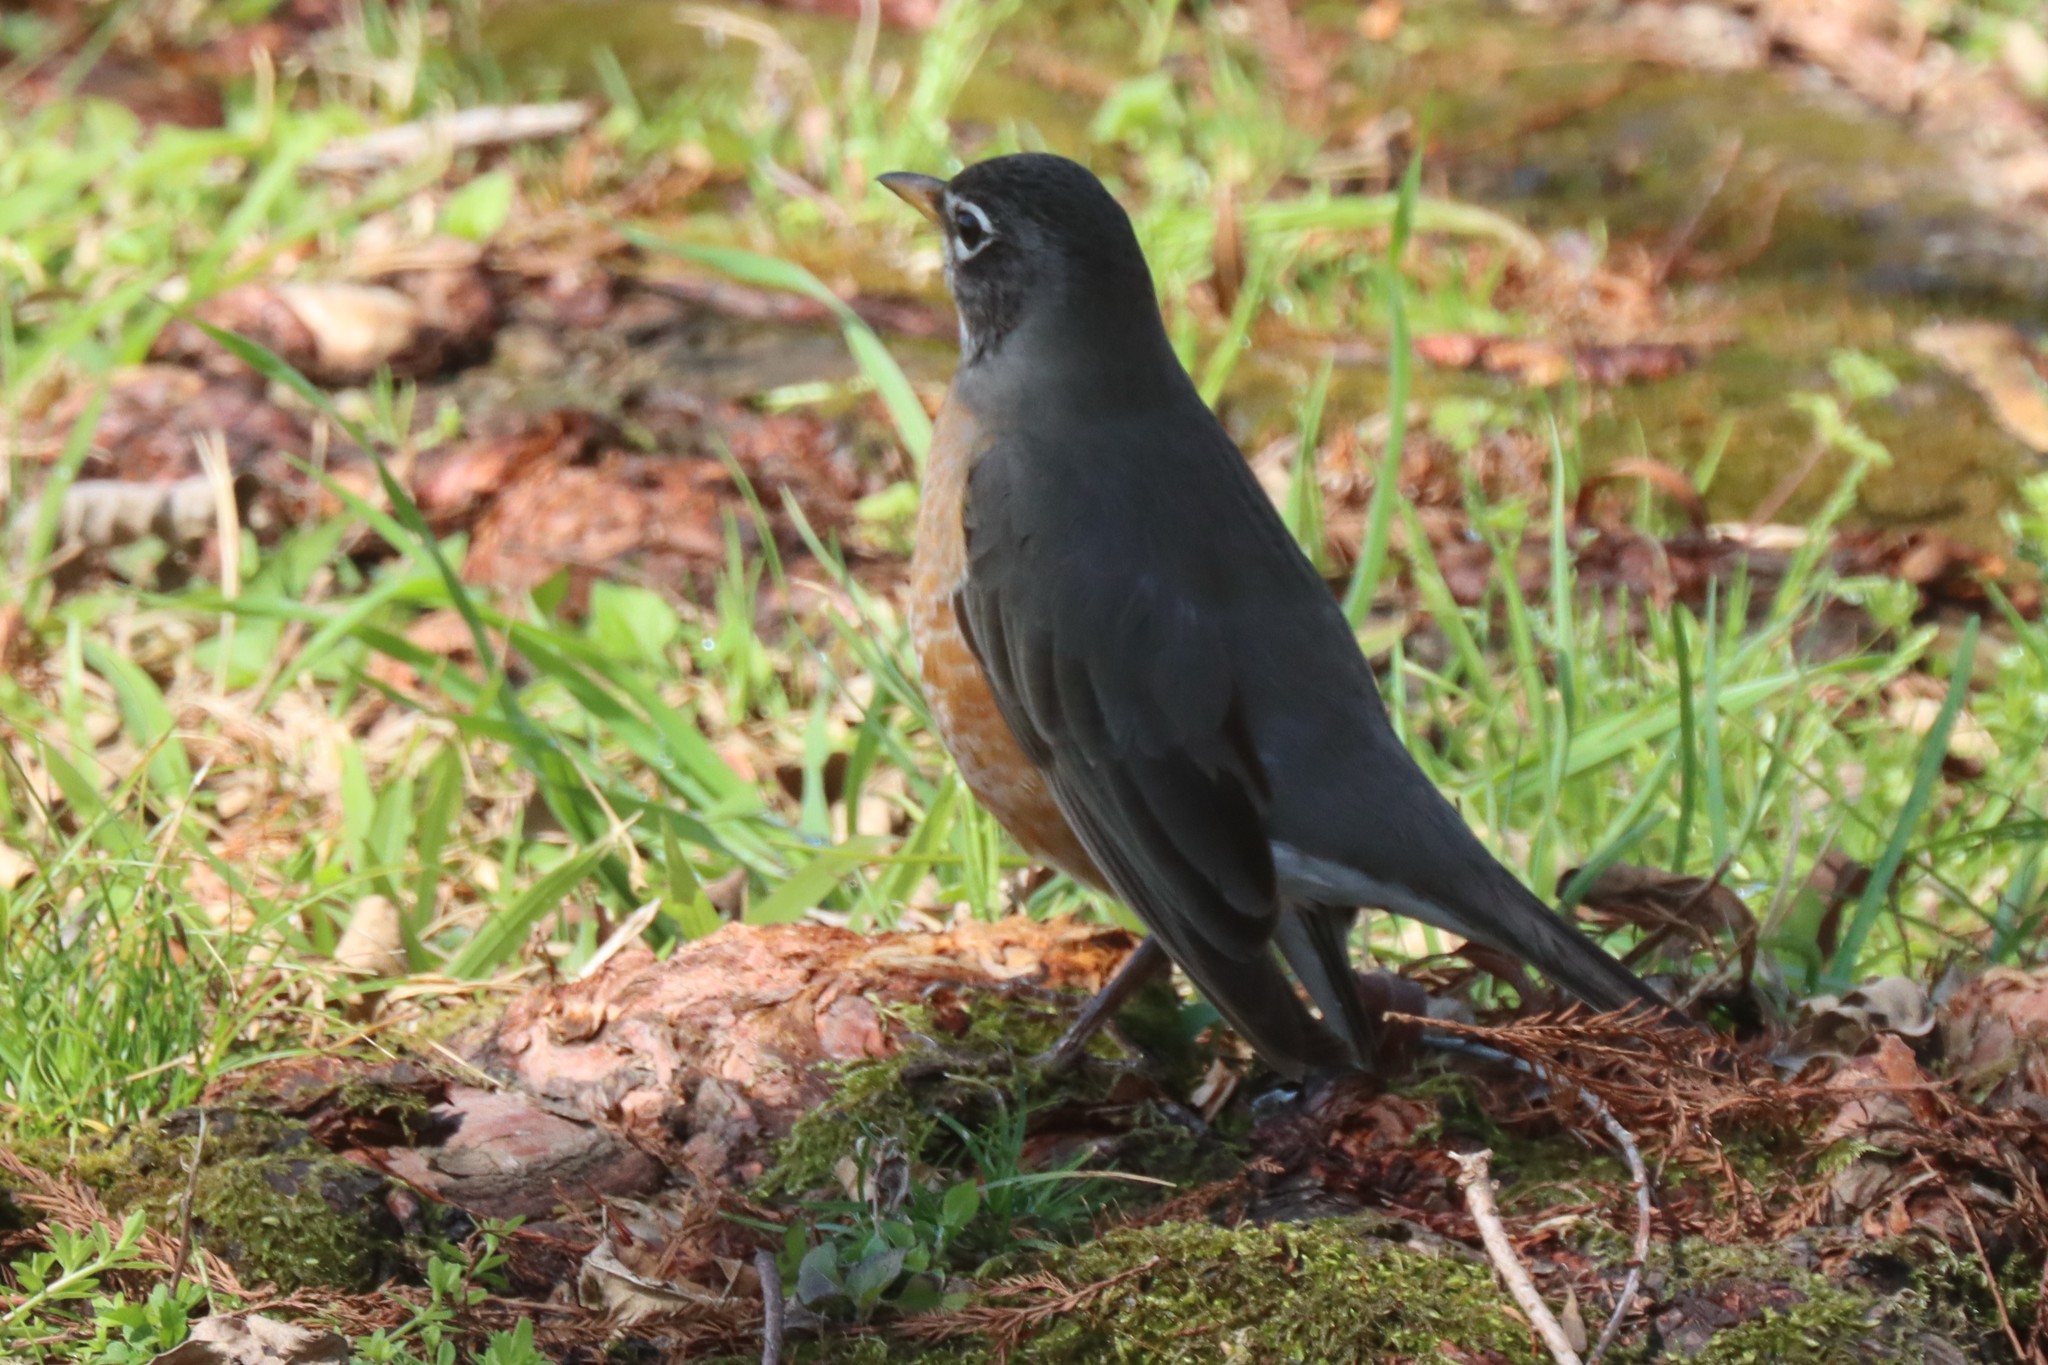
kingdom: Animalia
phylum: Chordata
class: Aves
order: Passeriformes
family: Turdidae
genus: Turdus
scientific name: Turdus migratorius
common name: American robin
